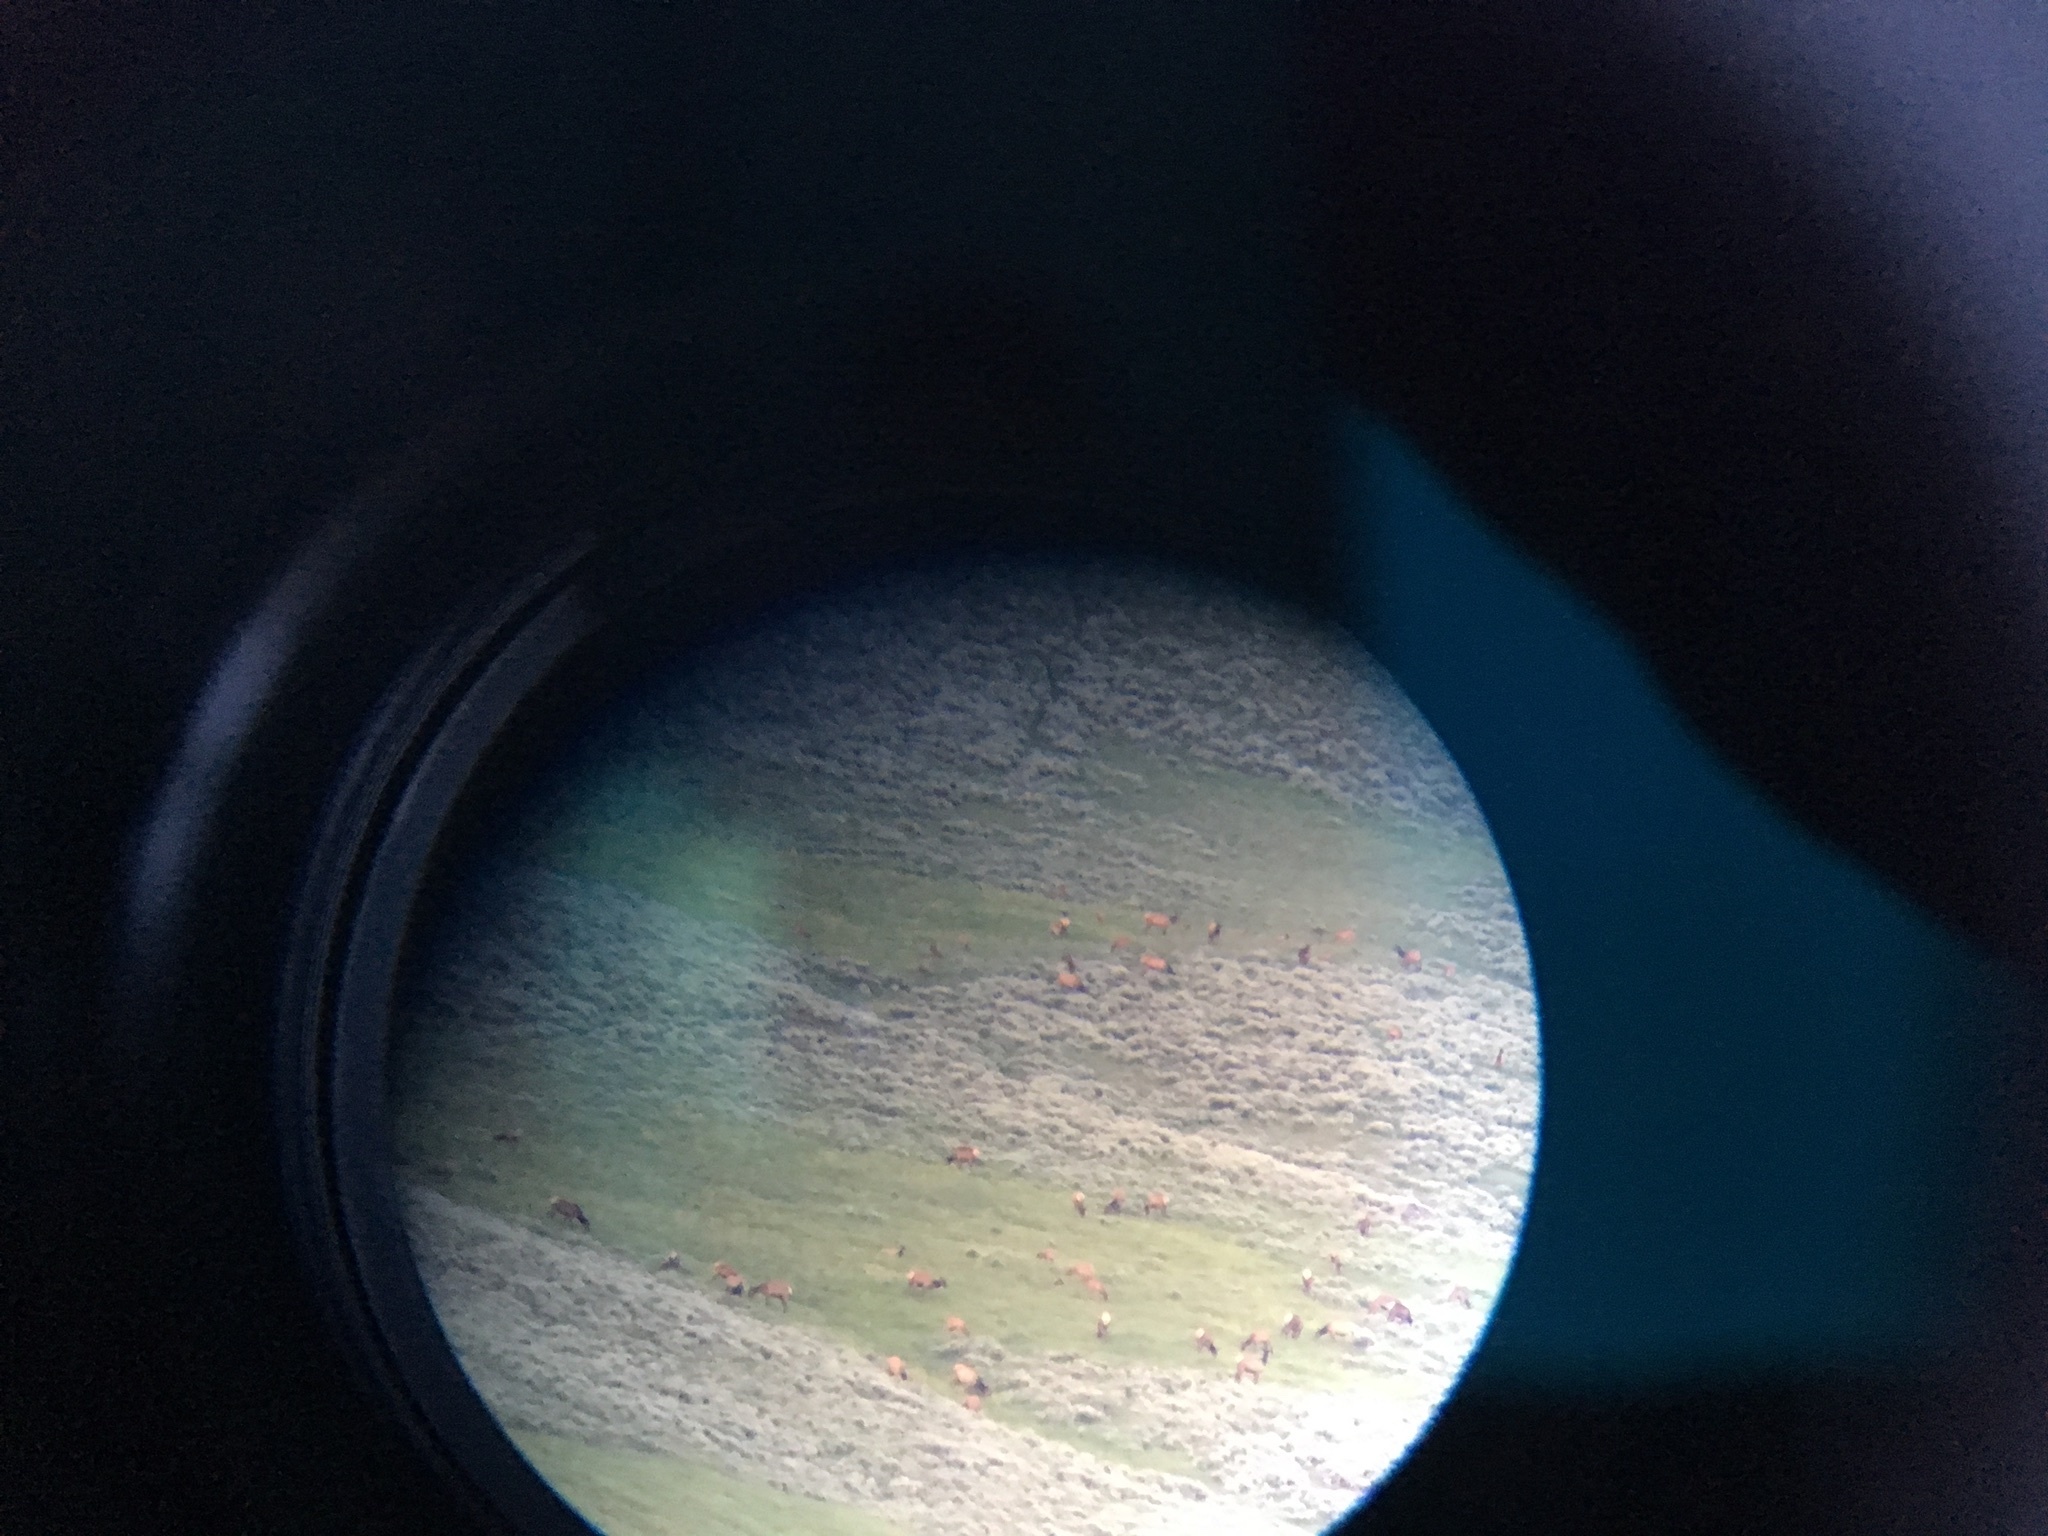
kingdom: Animalia
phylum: Chordata
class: Mammalia
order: Artiodactyla
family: Cervidae
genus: Cervus
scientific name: Cervus elaphus
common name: Red deer
